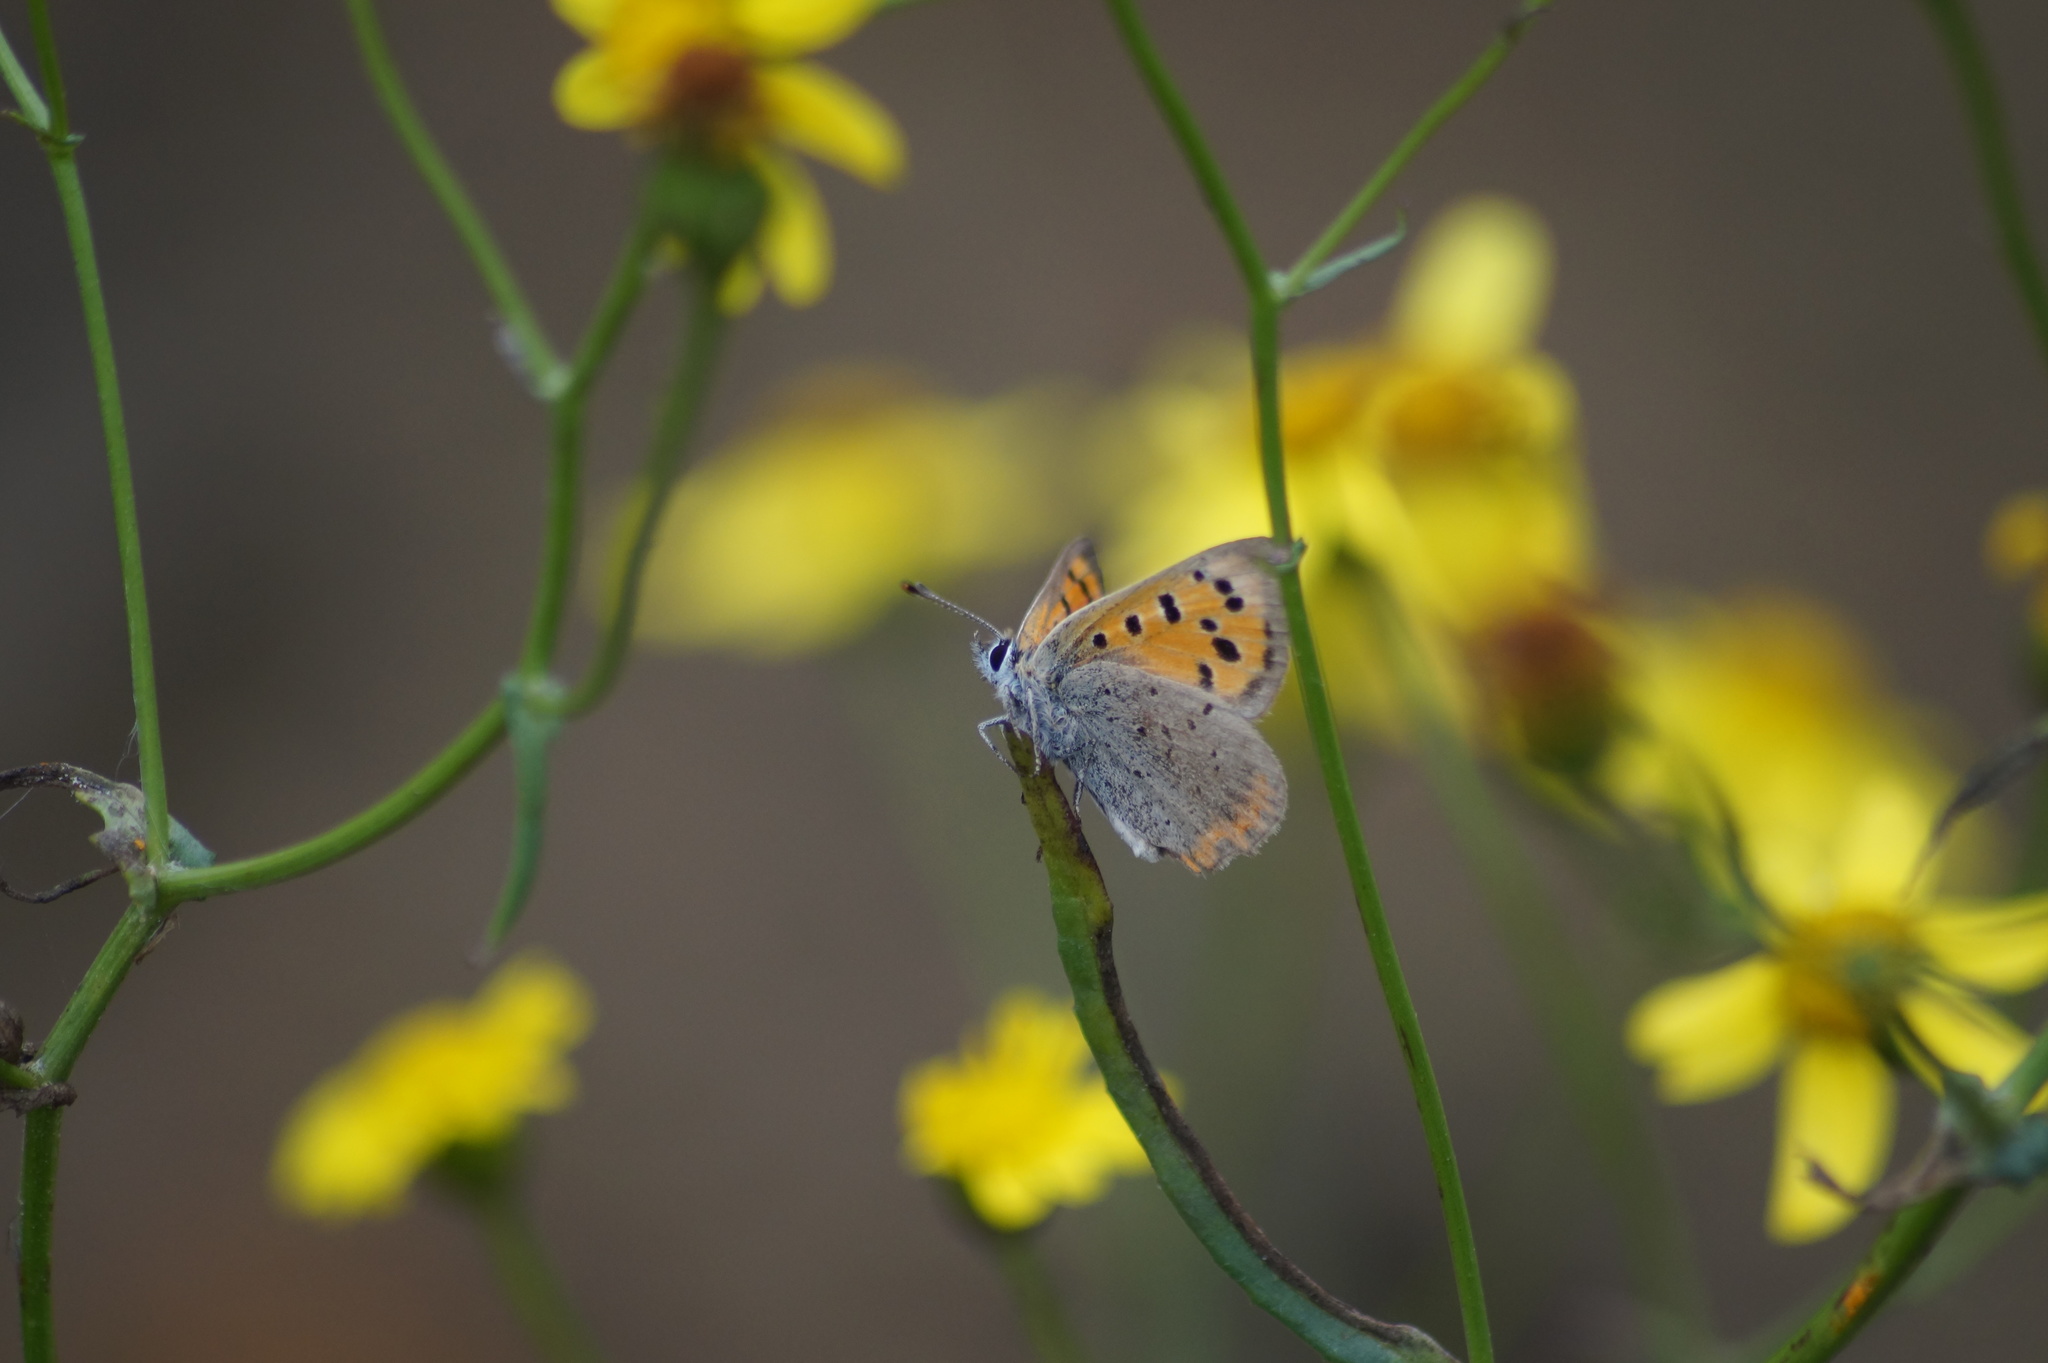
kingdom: Animalia
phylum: Arthropoda
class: Insecta
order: Lepidoptera
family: Lycaenidae
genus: Lycaena
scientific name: Lycaena phlaeas
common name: Small copper
